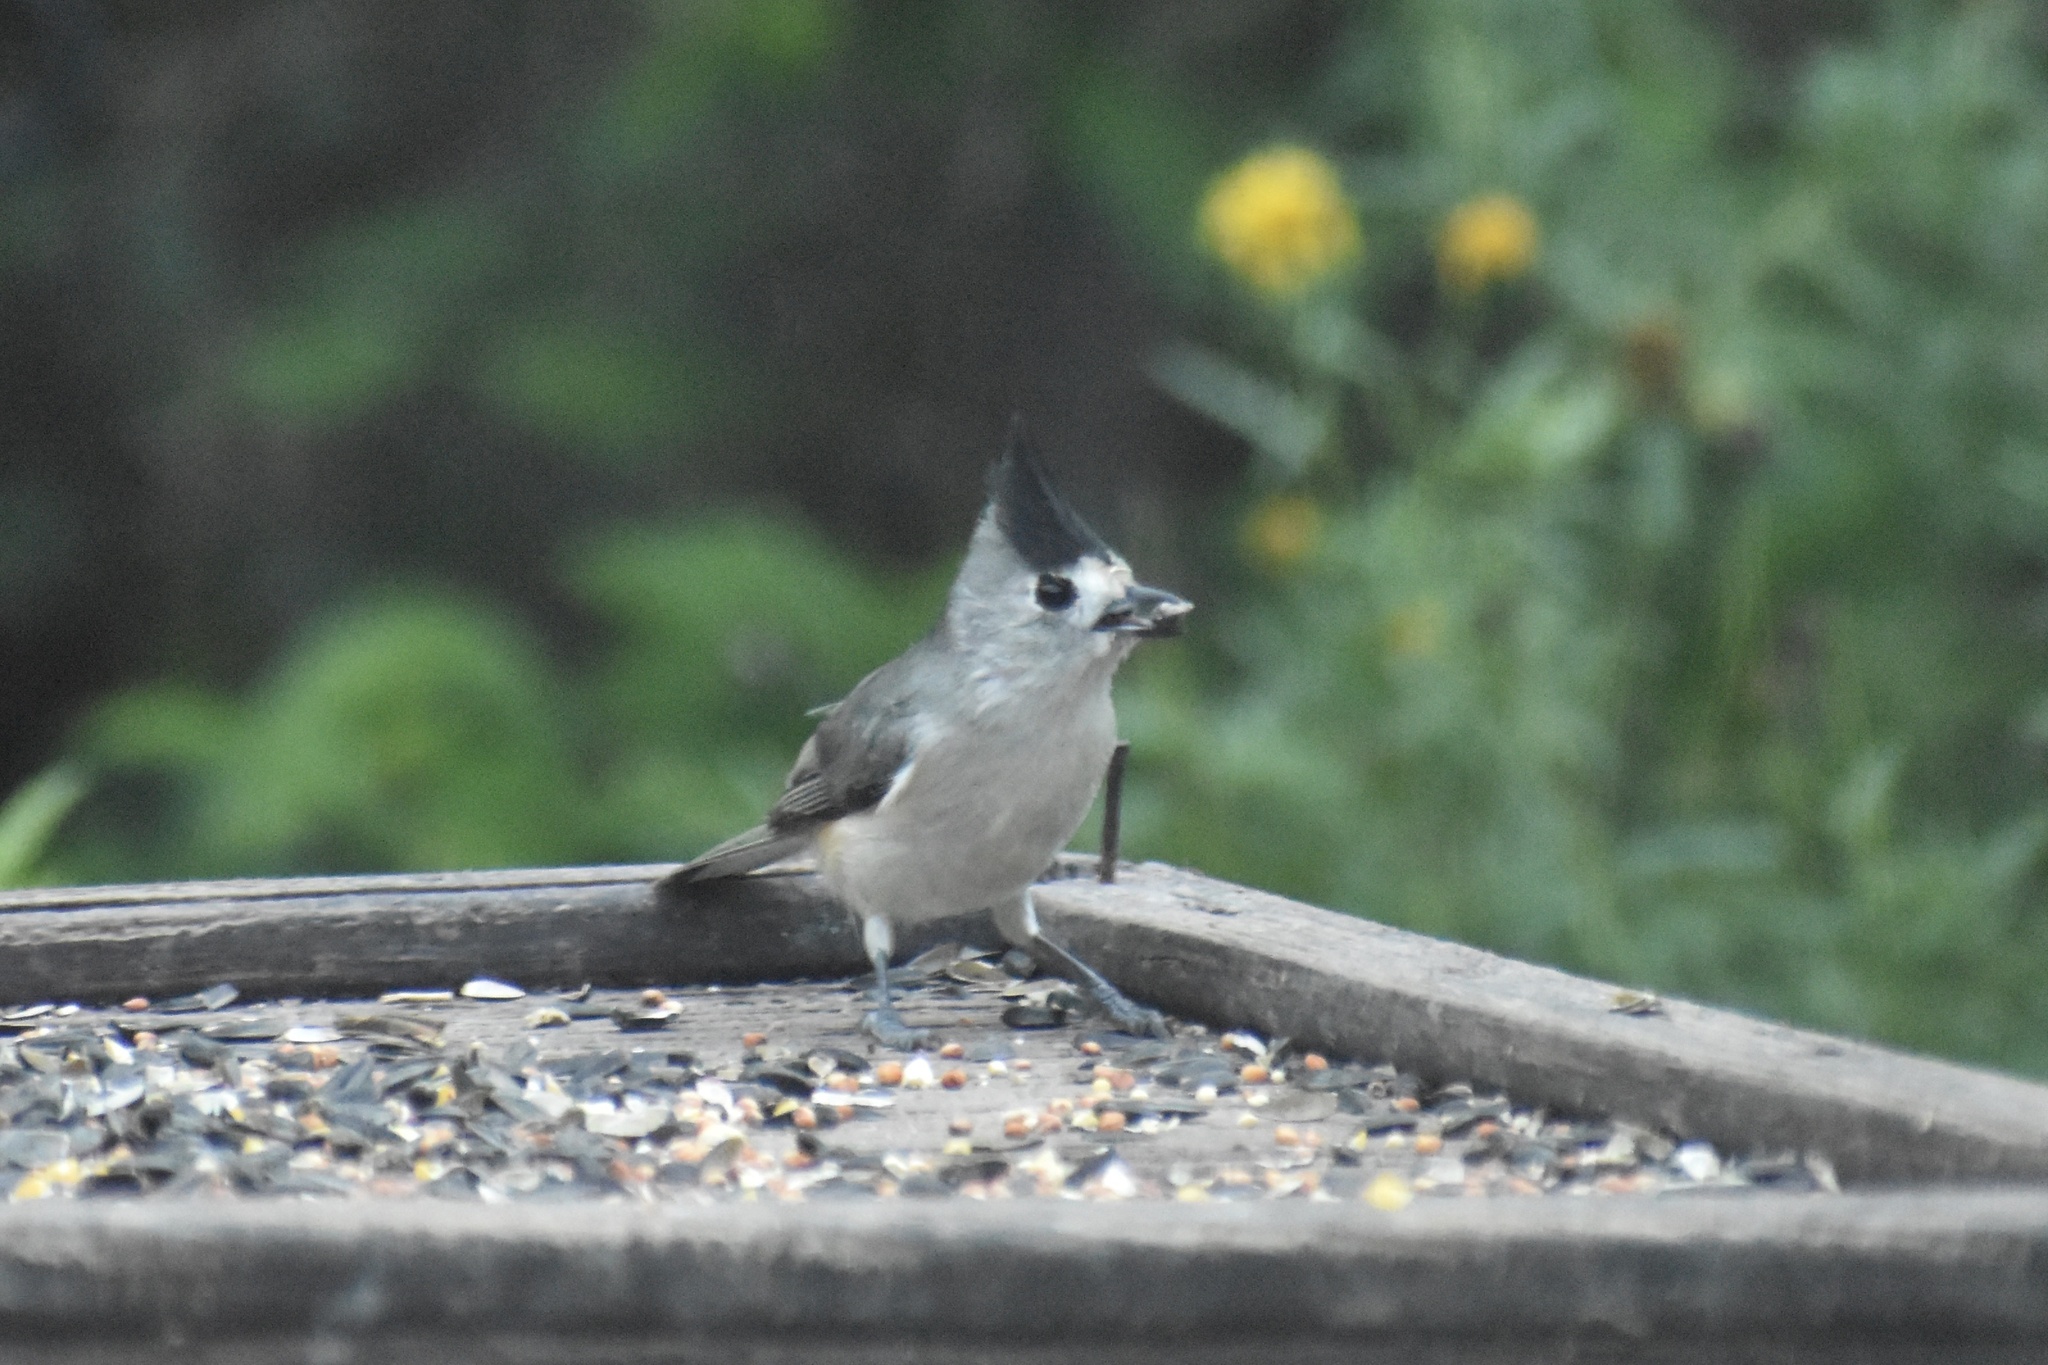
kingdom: Animalia
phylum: Chordata
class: Aves
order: Passeriformes
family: Paridae
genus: Baeolophus
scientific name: Baeolophus atricristatus
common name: Black-crested titmouse
